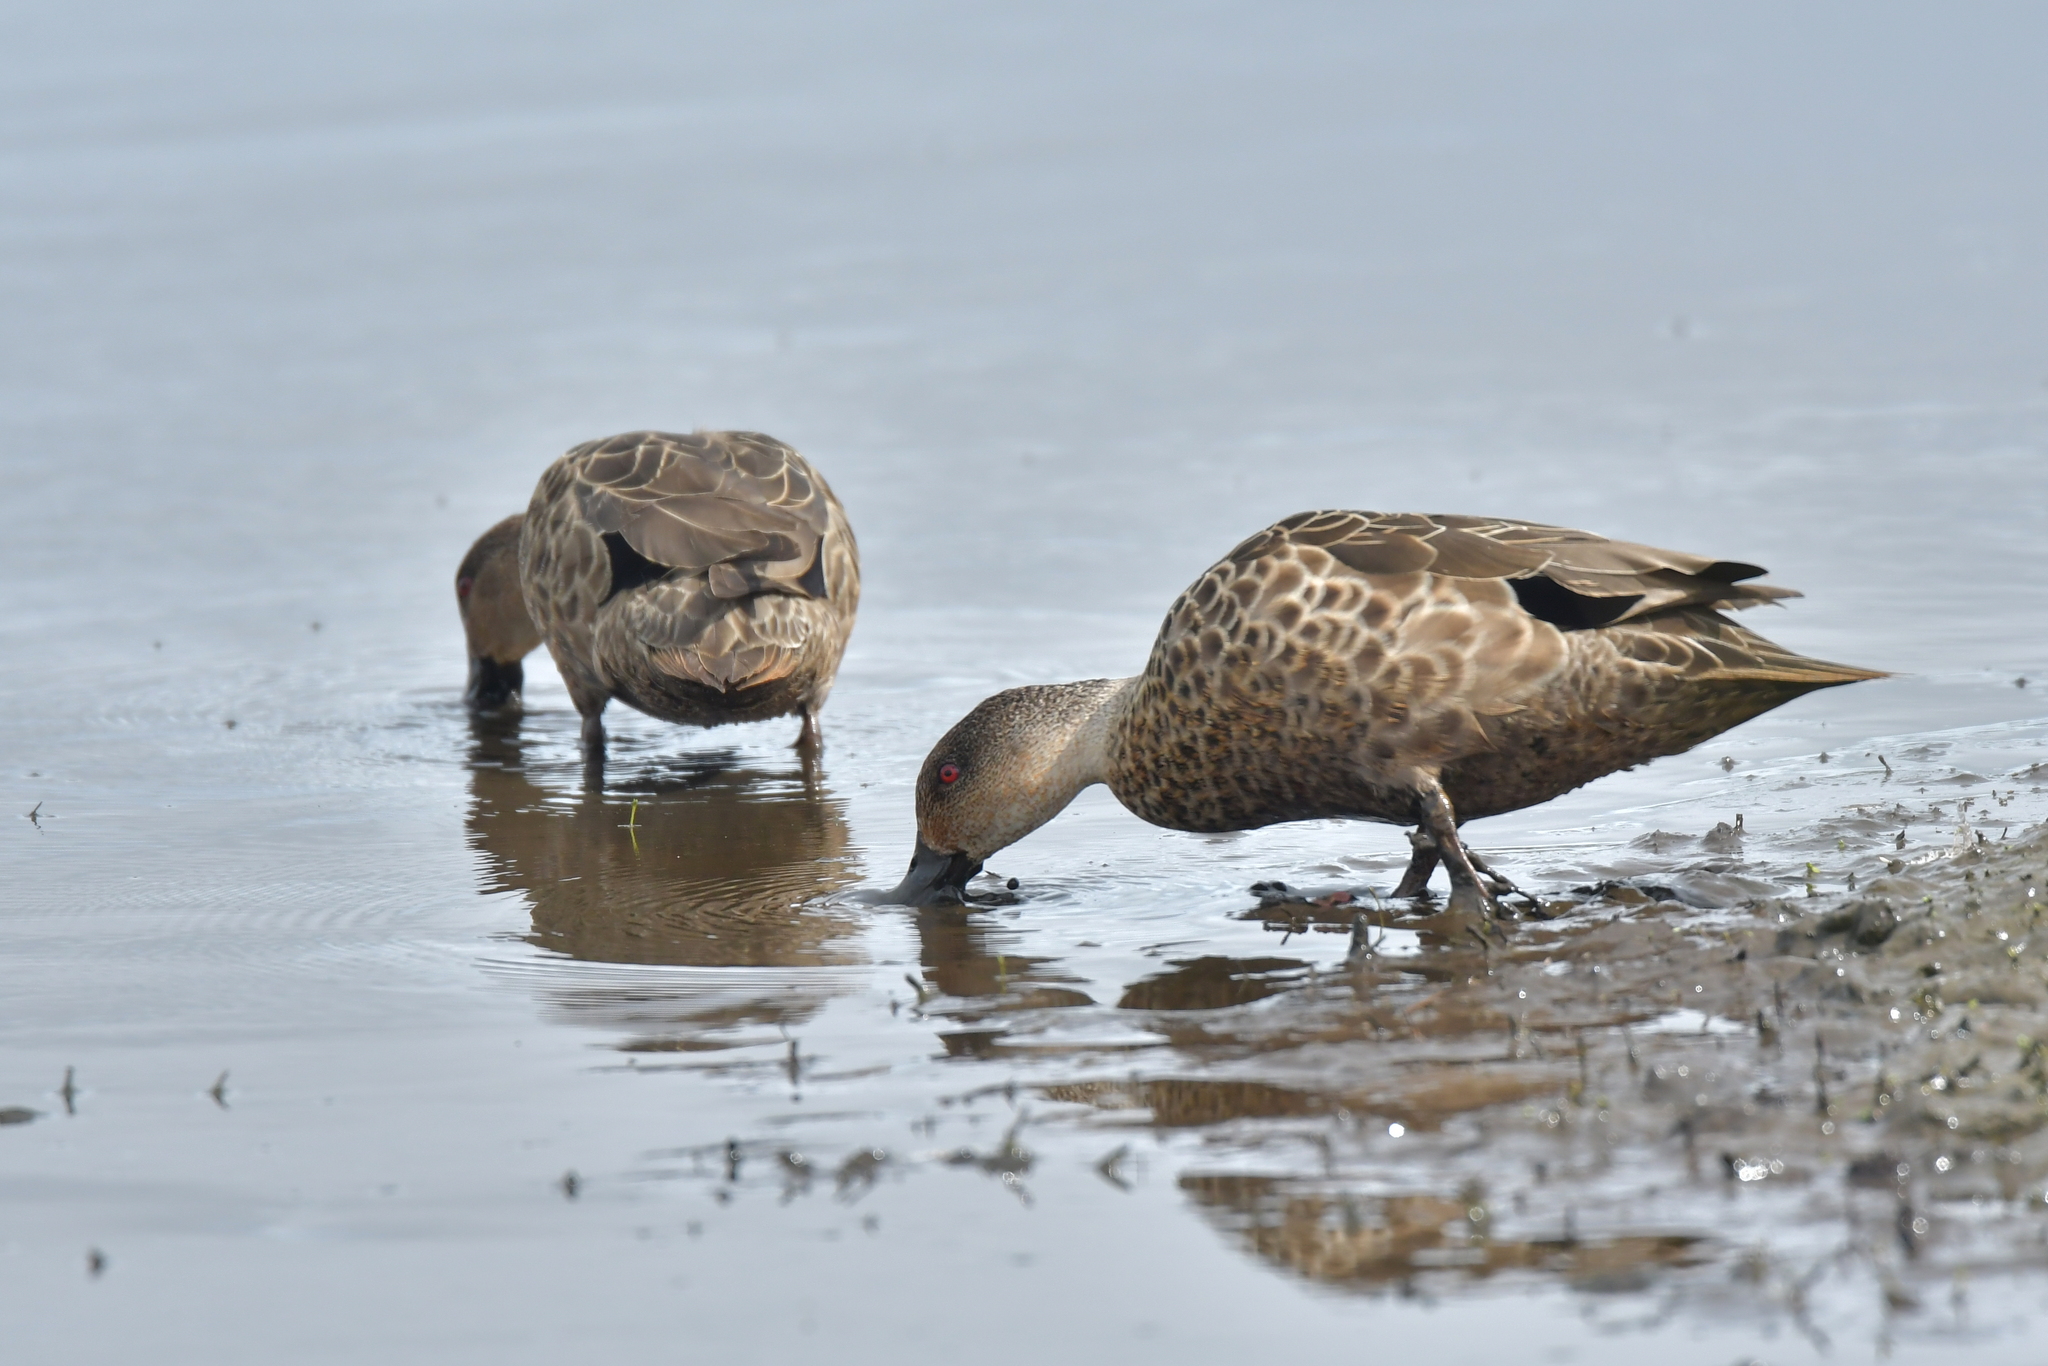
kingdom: Animalia
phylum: Chordata
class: Aves
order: Anseriformes
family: Anatidae
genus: Anas
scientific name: Anas gracilis
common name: Grey teal
